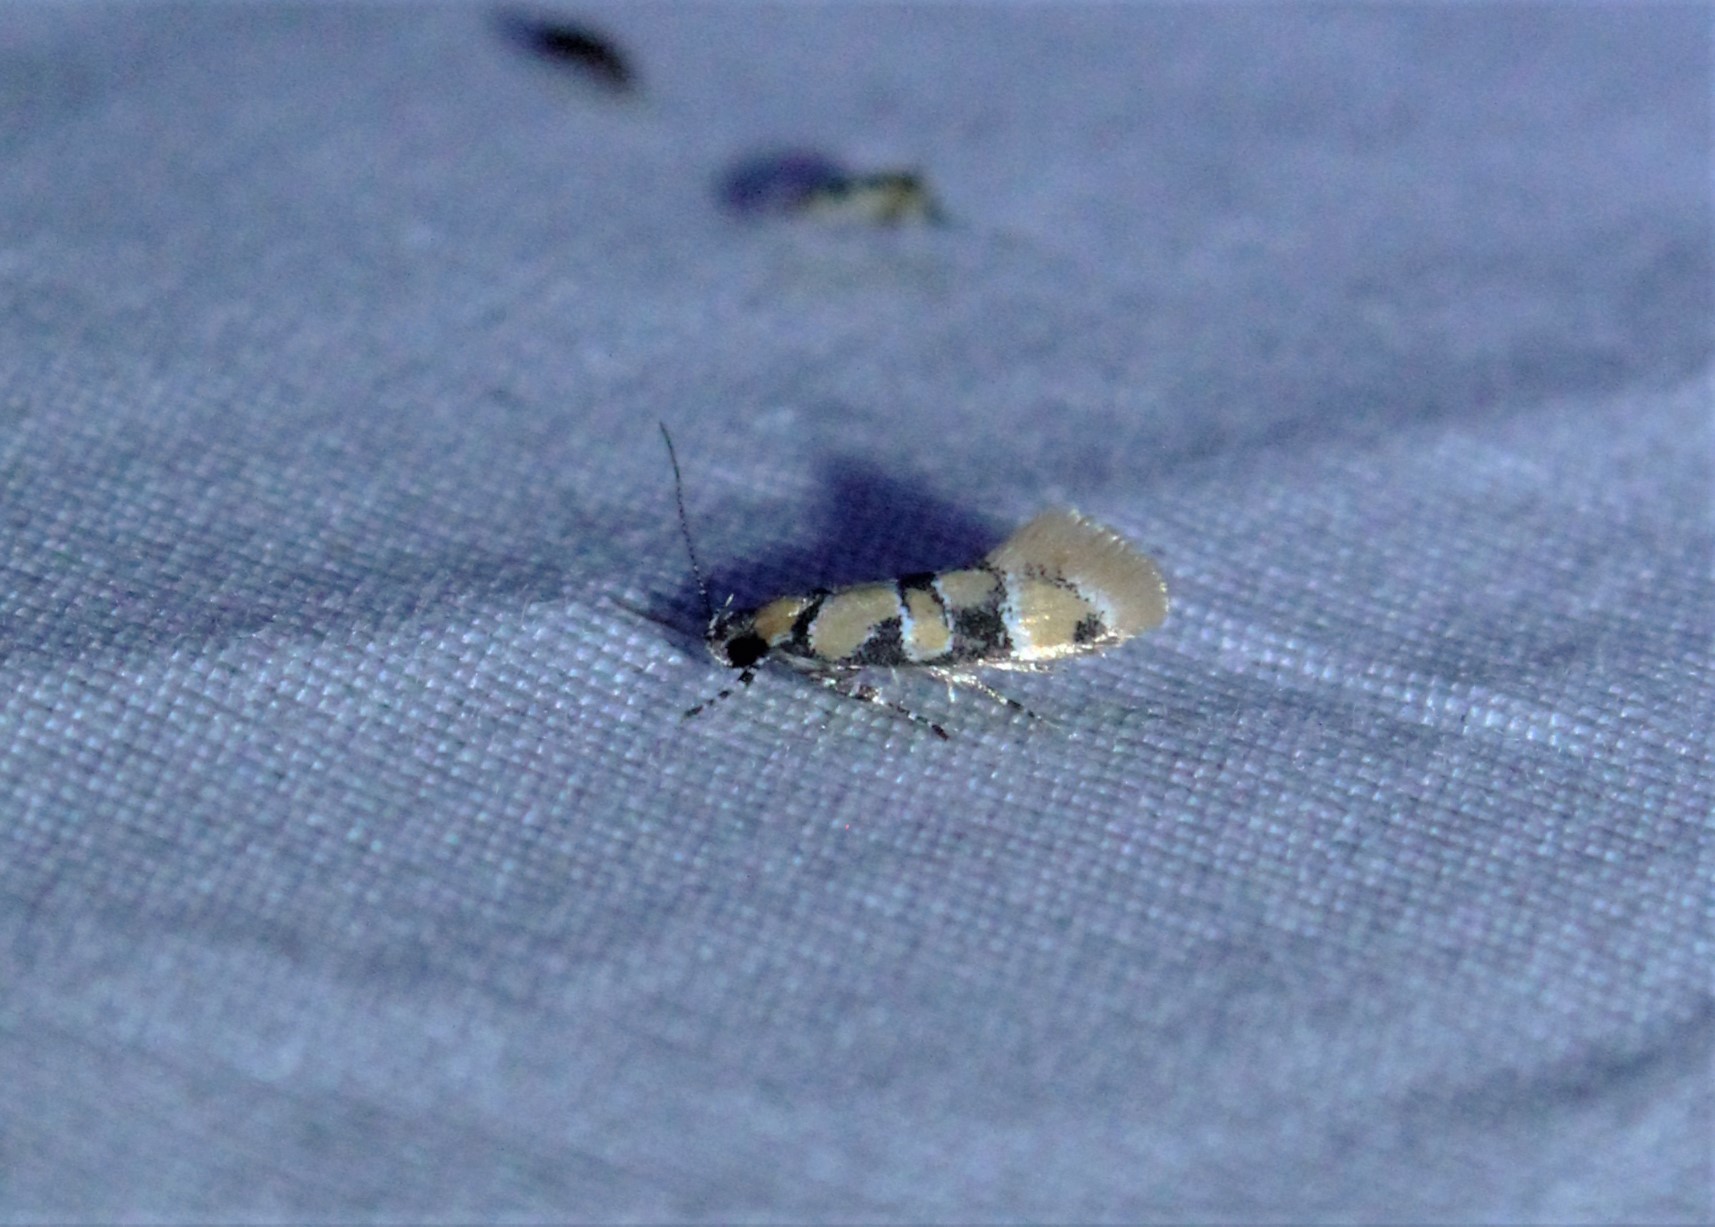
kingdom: Animalia
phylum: Arthropoda
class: Insecta
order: Lepidoptera
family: Oecophoridae
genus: Decantha
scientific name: Decantha borkhausenii
